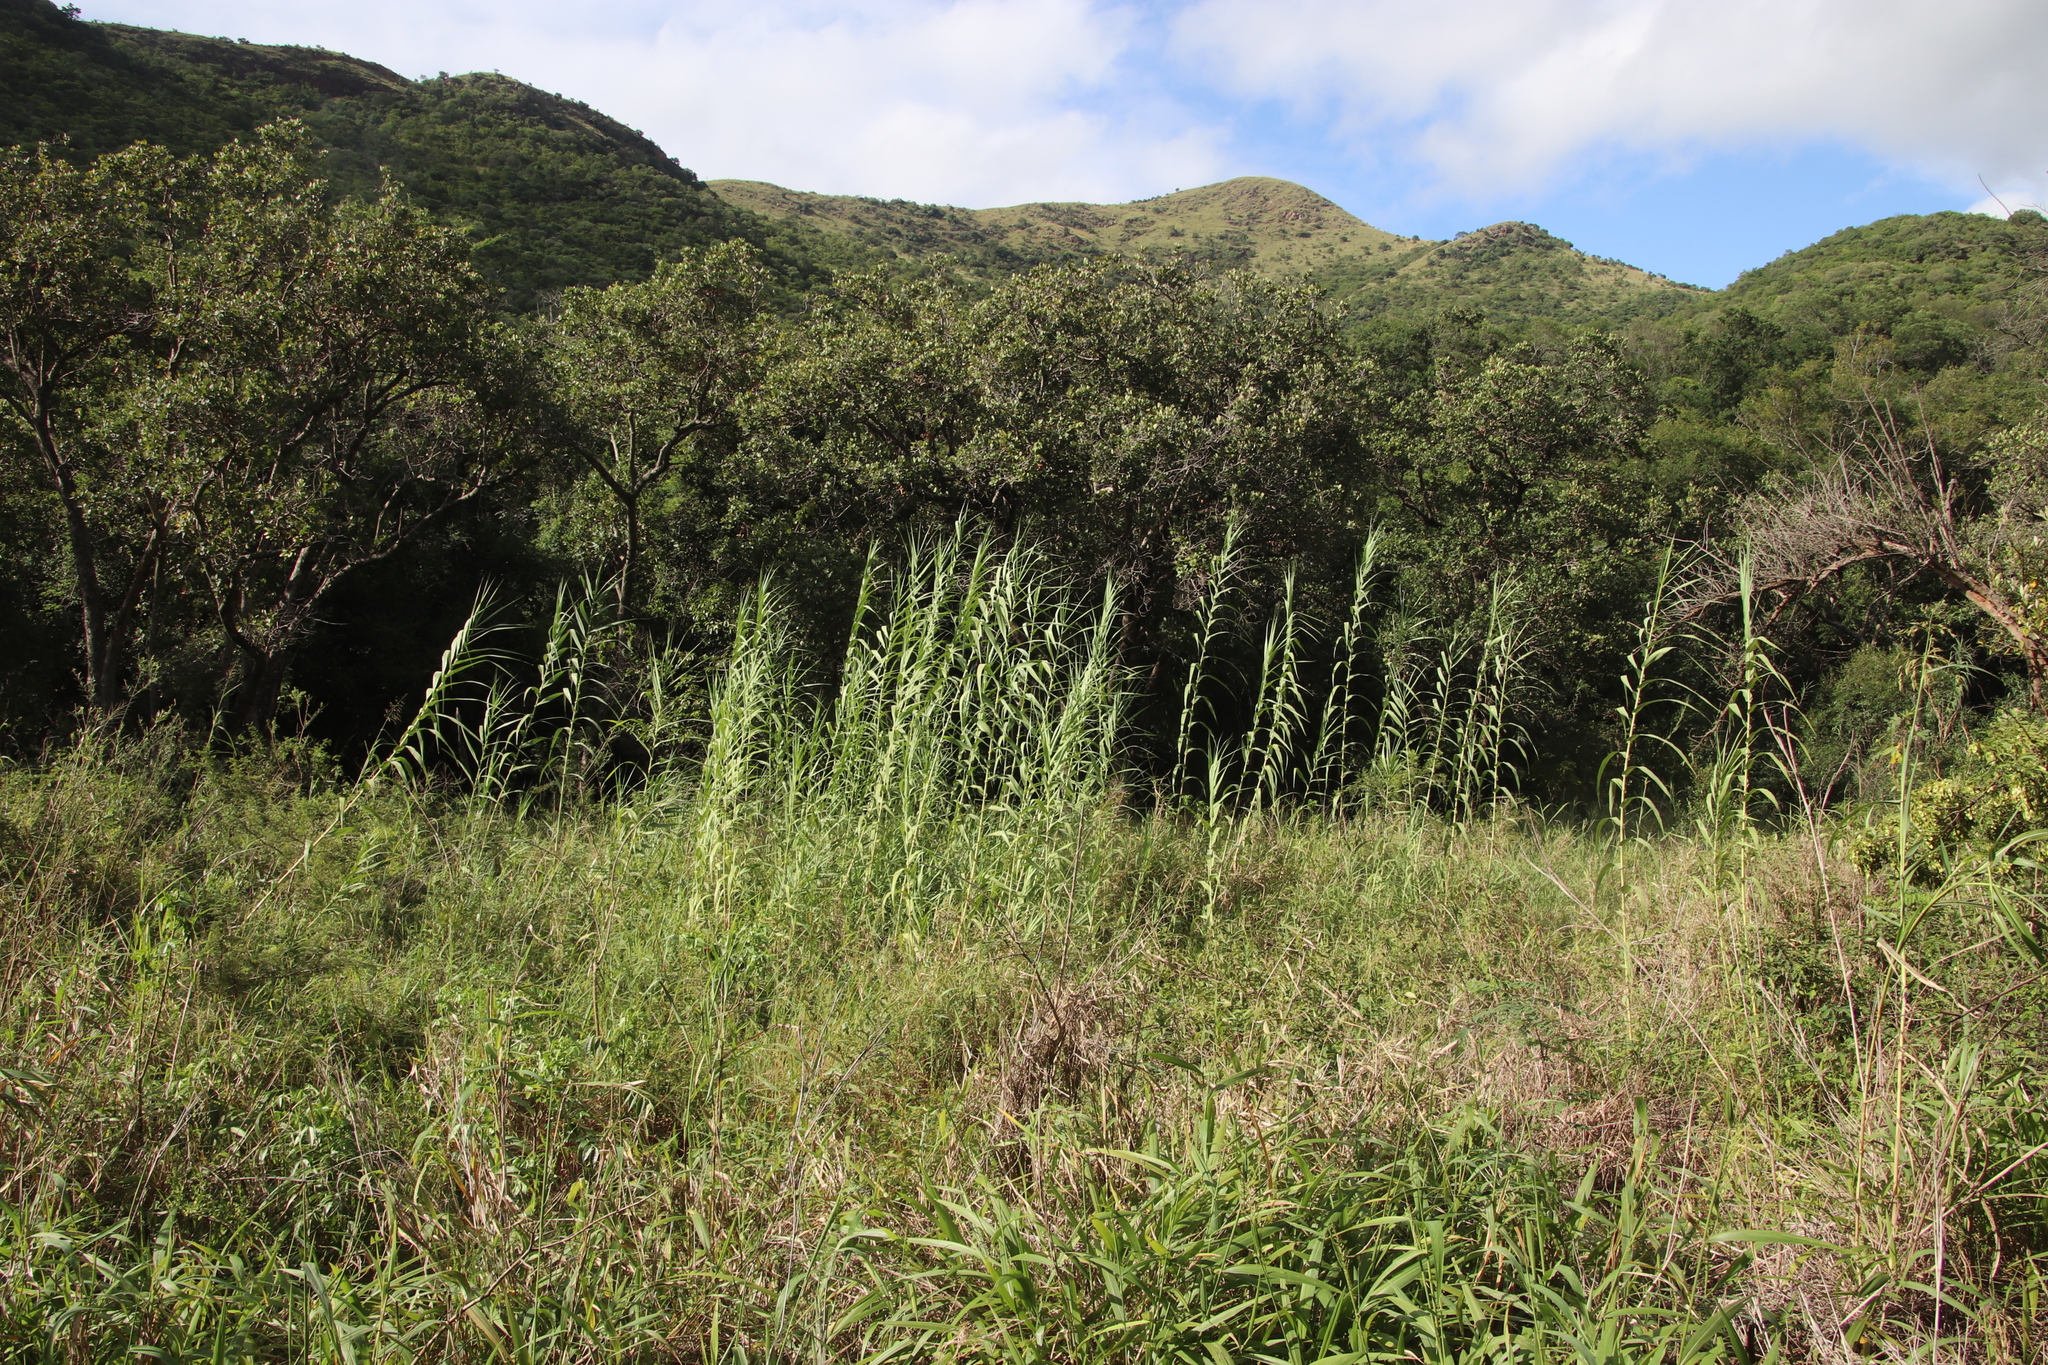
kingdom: Plantae
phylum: Tracheophyta
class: Liliopsida
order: Poales
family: Poaceae
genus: Phragmites
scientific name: Phragmites australis
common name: Common reed
